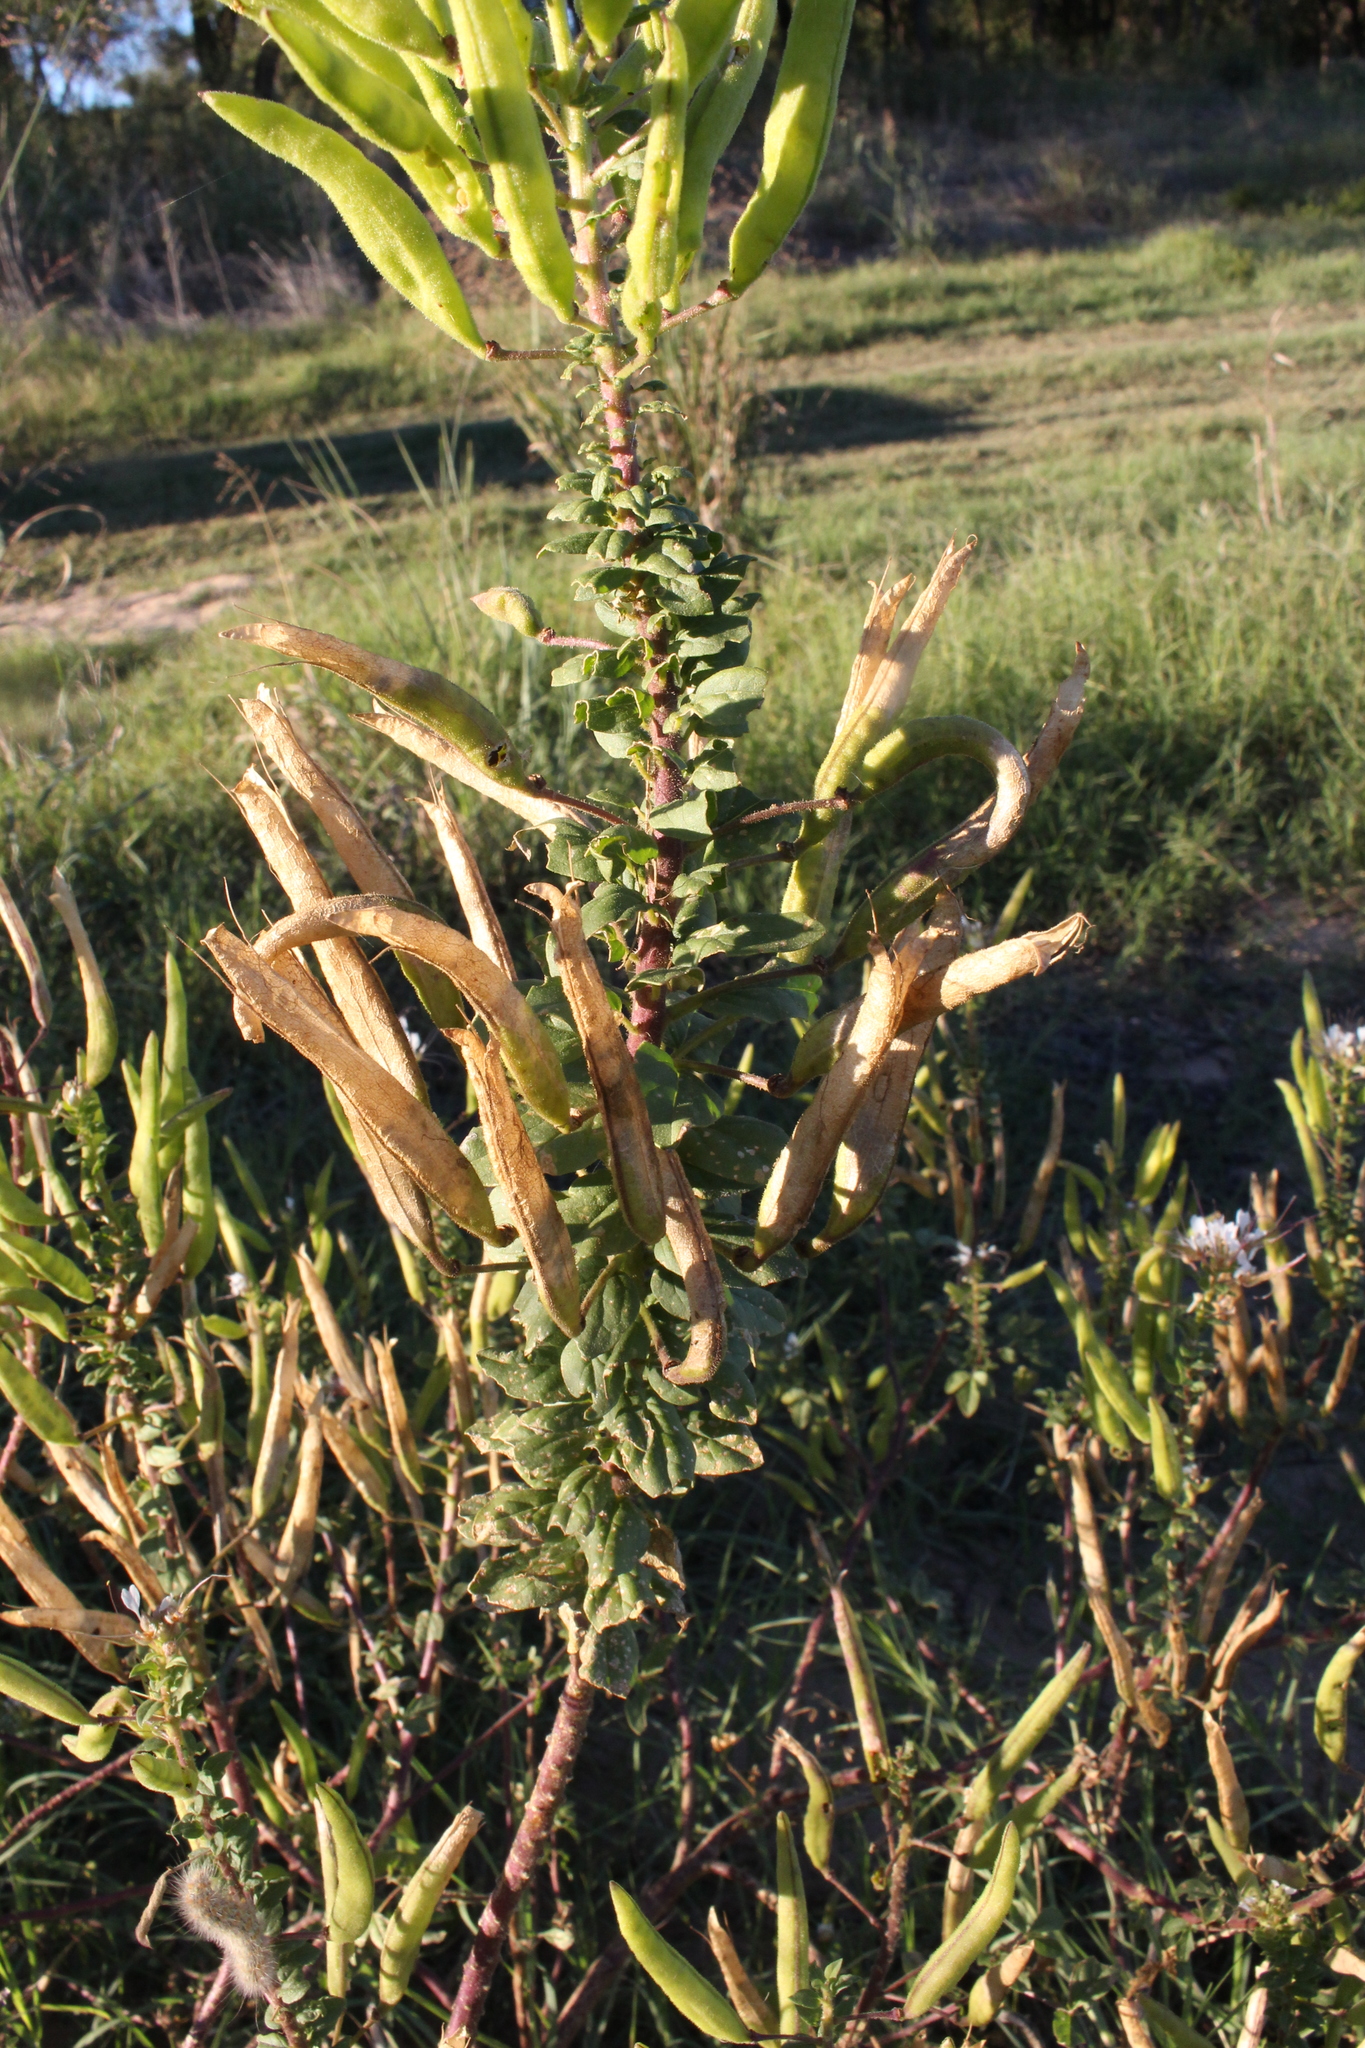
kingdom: Plantae
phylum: Tracheophyta
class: Magnoliopsida
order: Brassicales
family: Cleomaceae
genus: Polanisia
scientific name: Polanisia dodecandra
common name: Clammyweed
